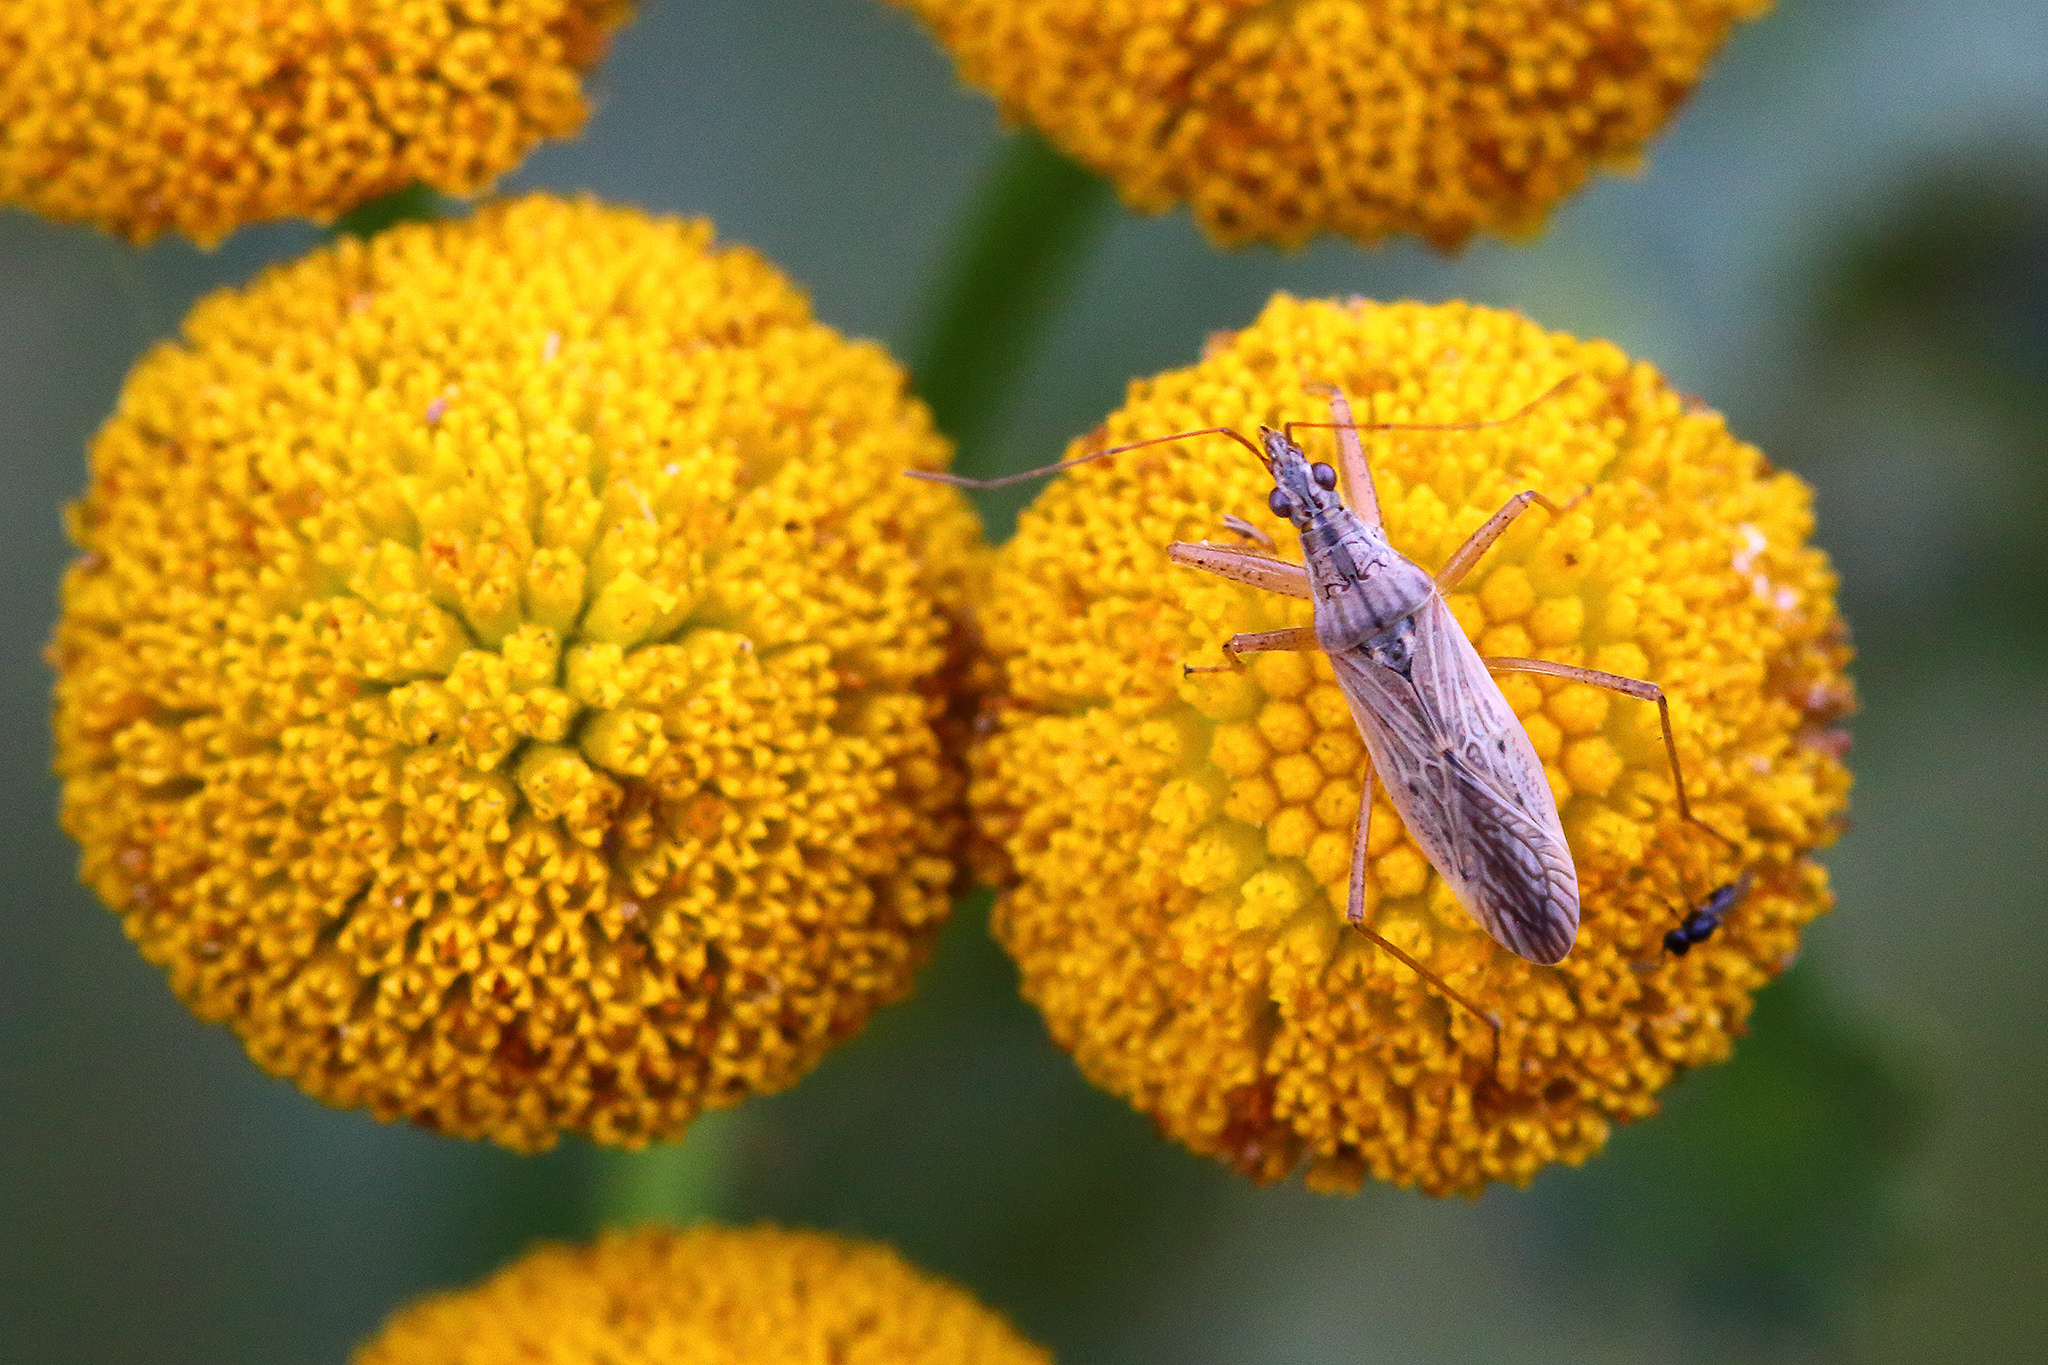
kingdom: Animalia
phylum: Arthropoda
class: Insecta
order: Hemiptera
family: Nabidae
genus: Nabis
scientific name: Nabis ferus
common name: Field damsel bug
